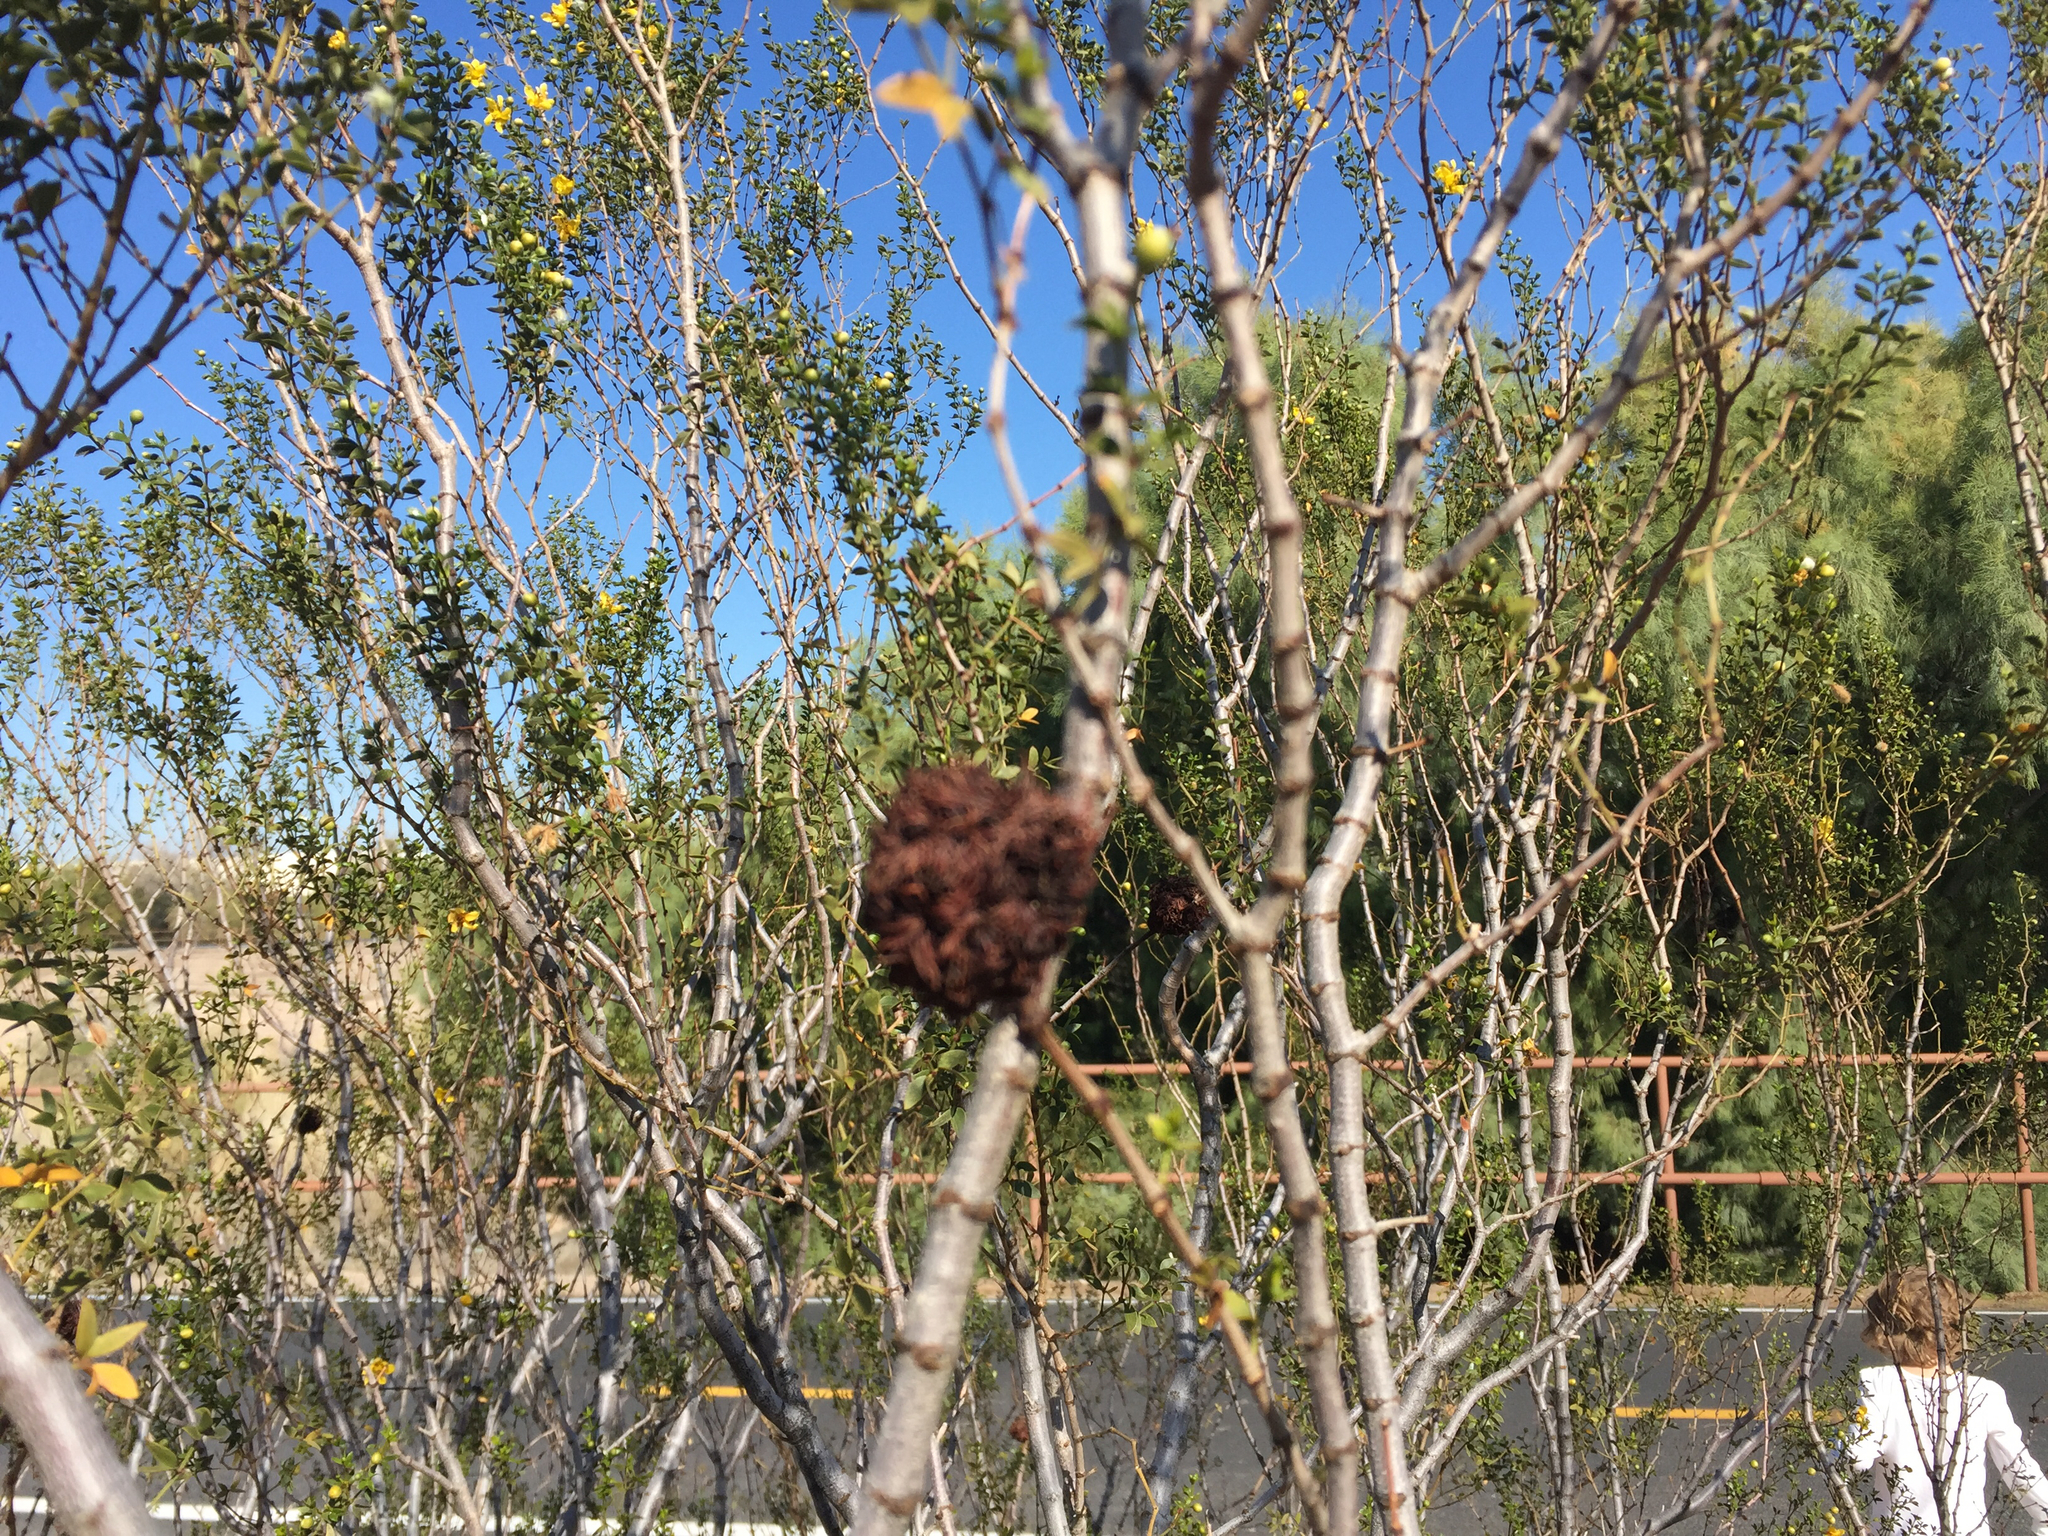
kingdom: Animalia
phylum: Arthropoda
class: Insecta
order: Diptera
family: Cecidomyiidae
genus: Asphondylia
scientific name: Asphondylia auripila
